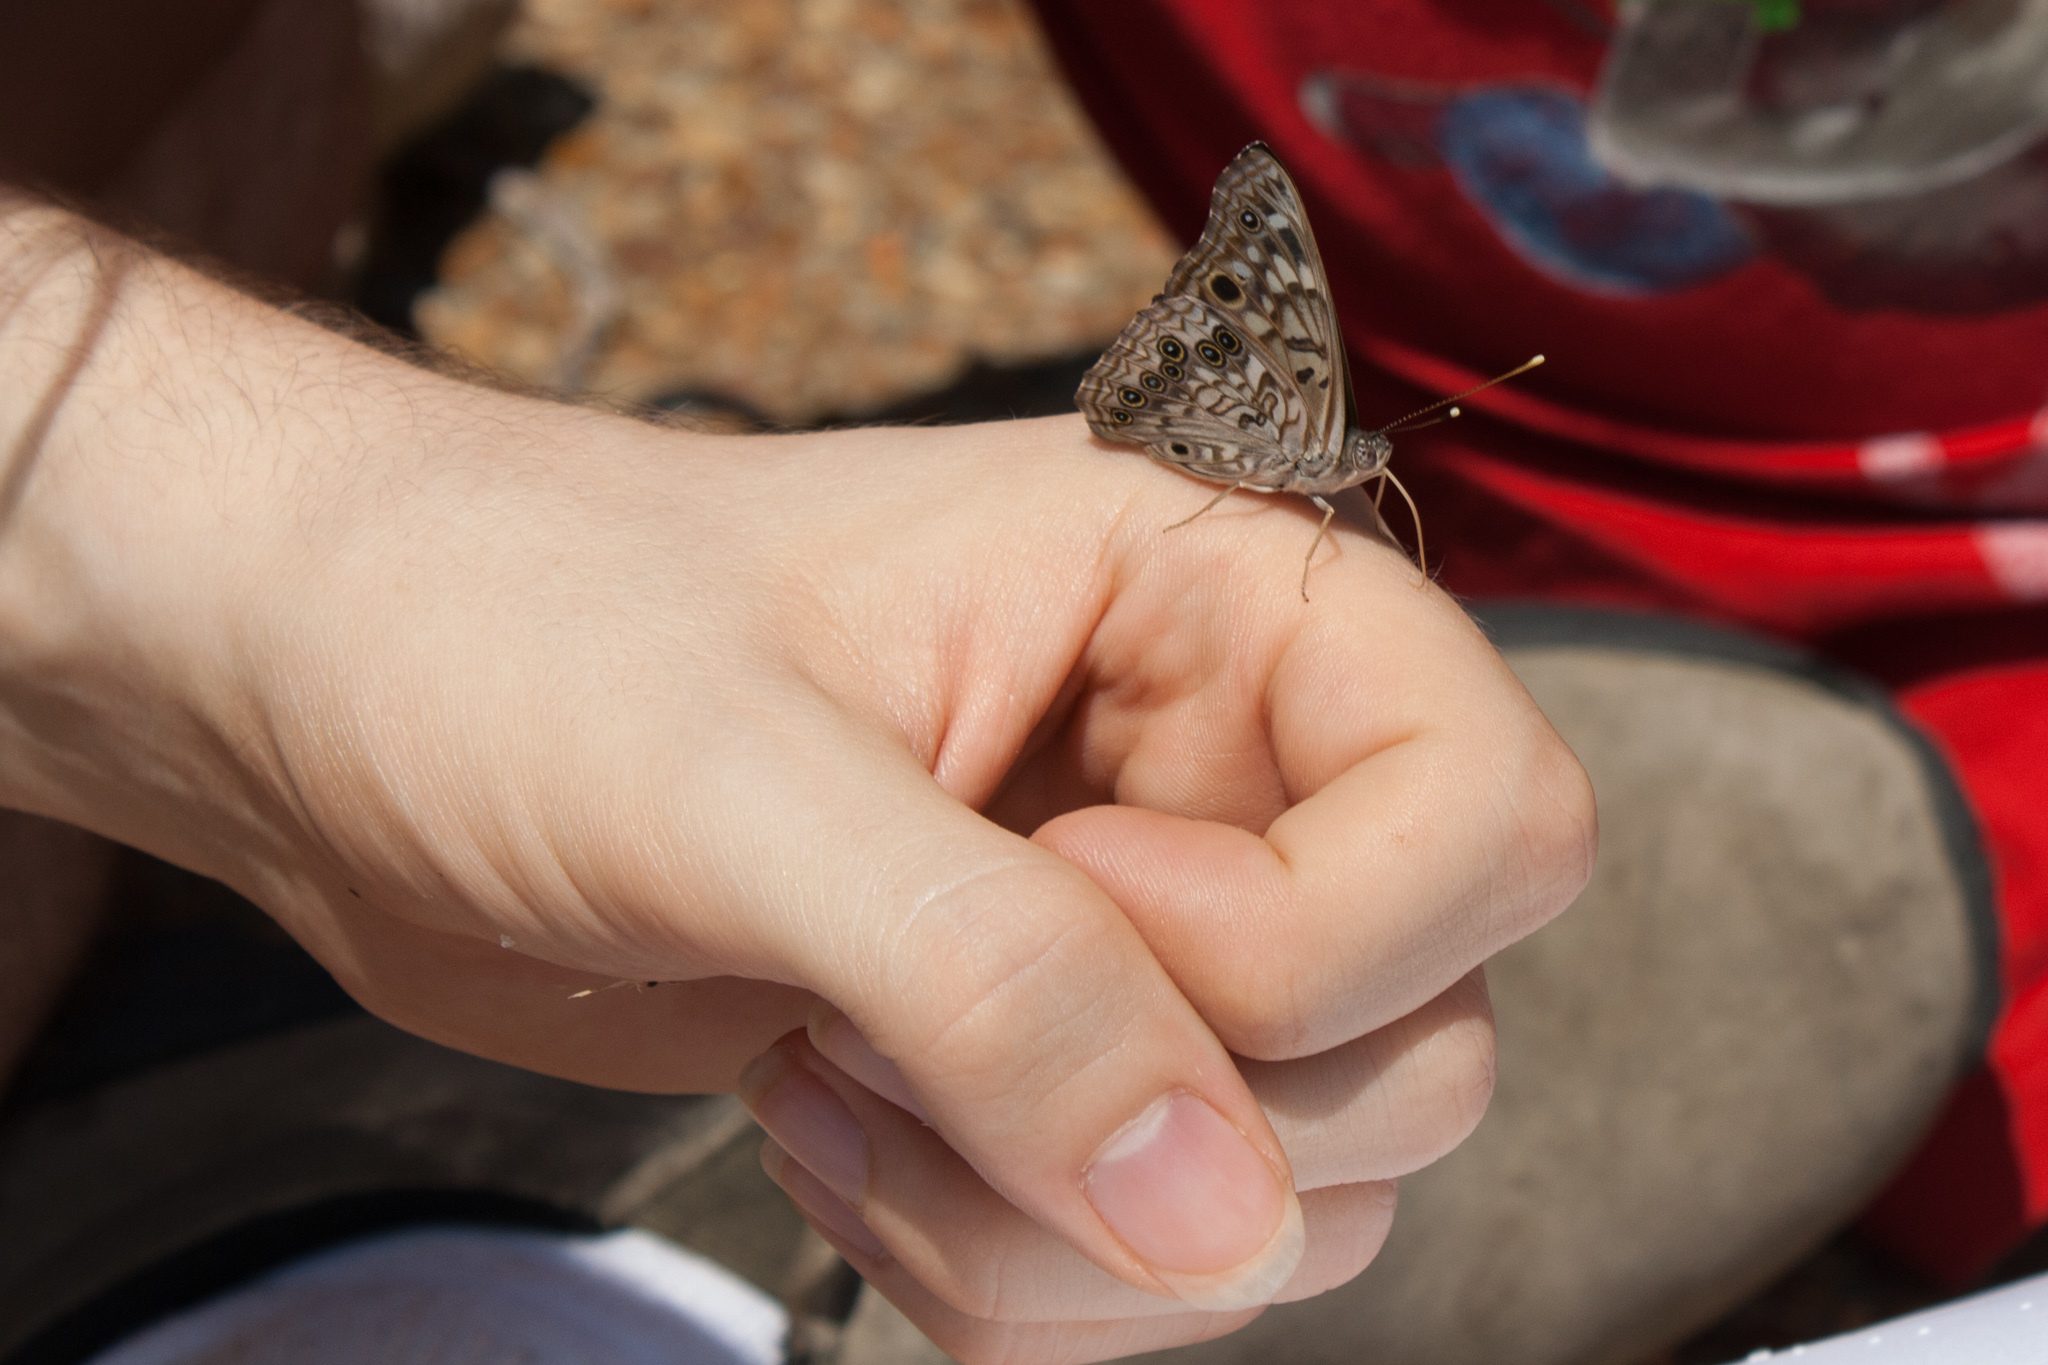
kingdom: Animalia
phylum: Arthropoda
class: Insecta
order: Lepidoptera
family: Nymphalidae
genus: Asterocampa
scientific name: Asterocampa celtis
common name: Hackberry emperor
